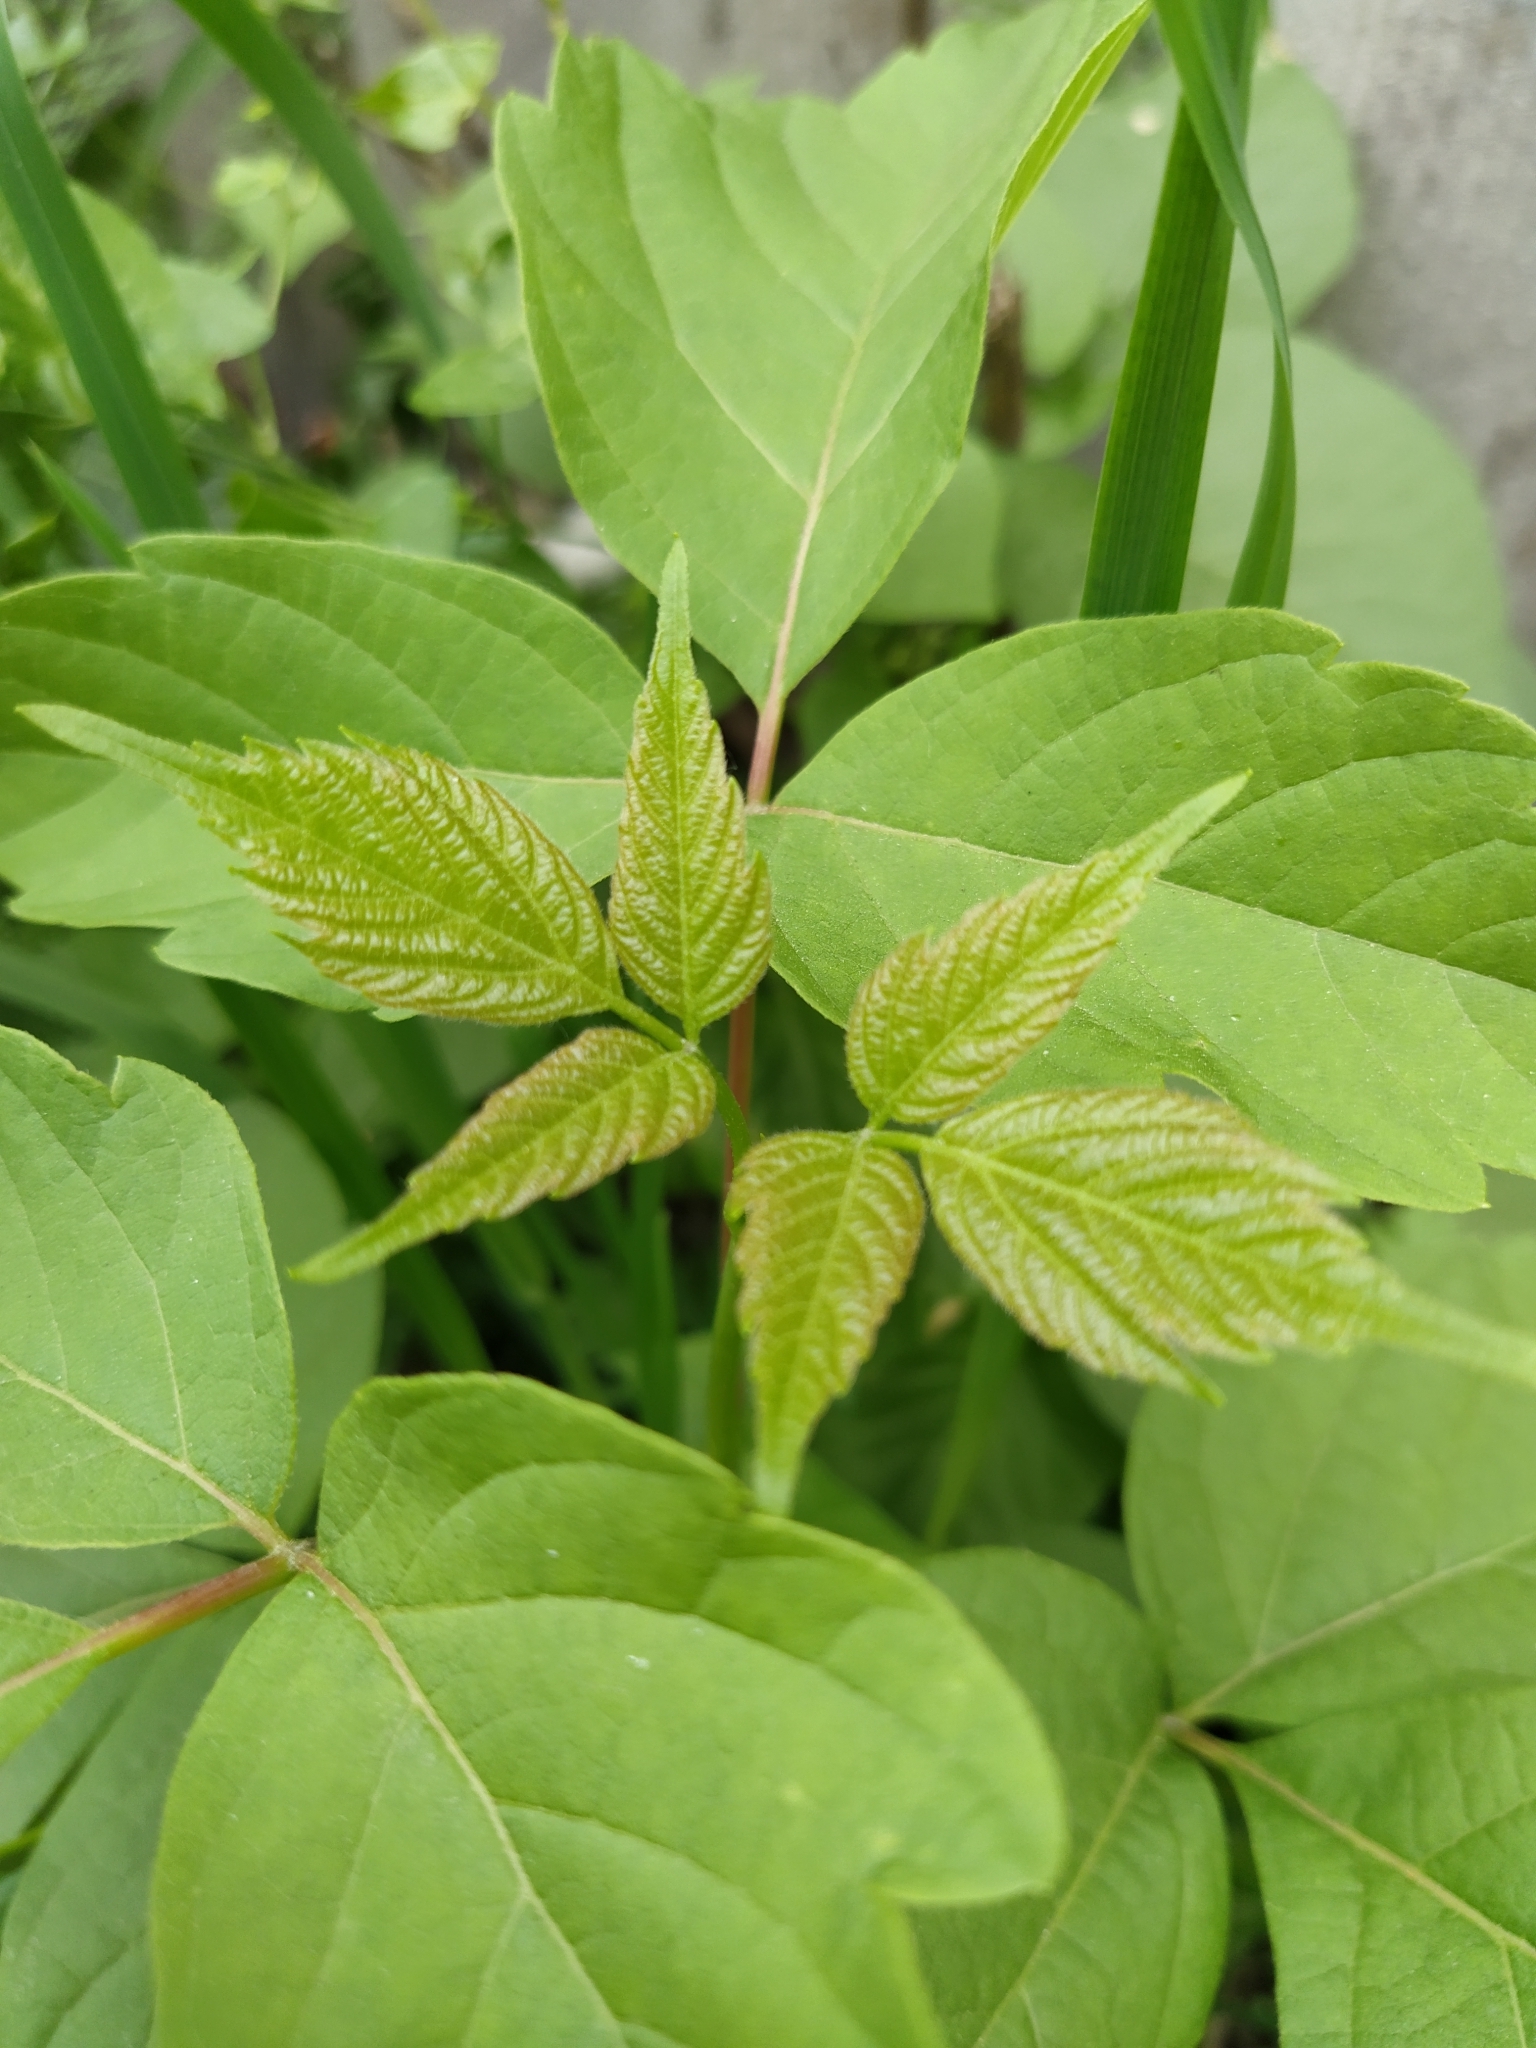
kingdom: Plantae
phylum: Tracheophyta
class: Magnoliopsida
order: Sapindales
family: Sapindaceae
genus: Acer
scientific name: Acer negundo
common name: Ashleaf maple
